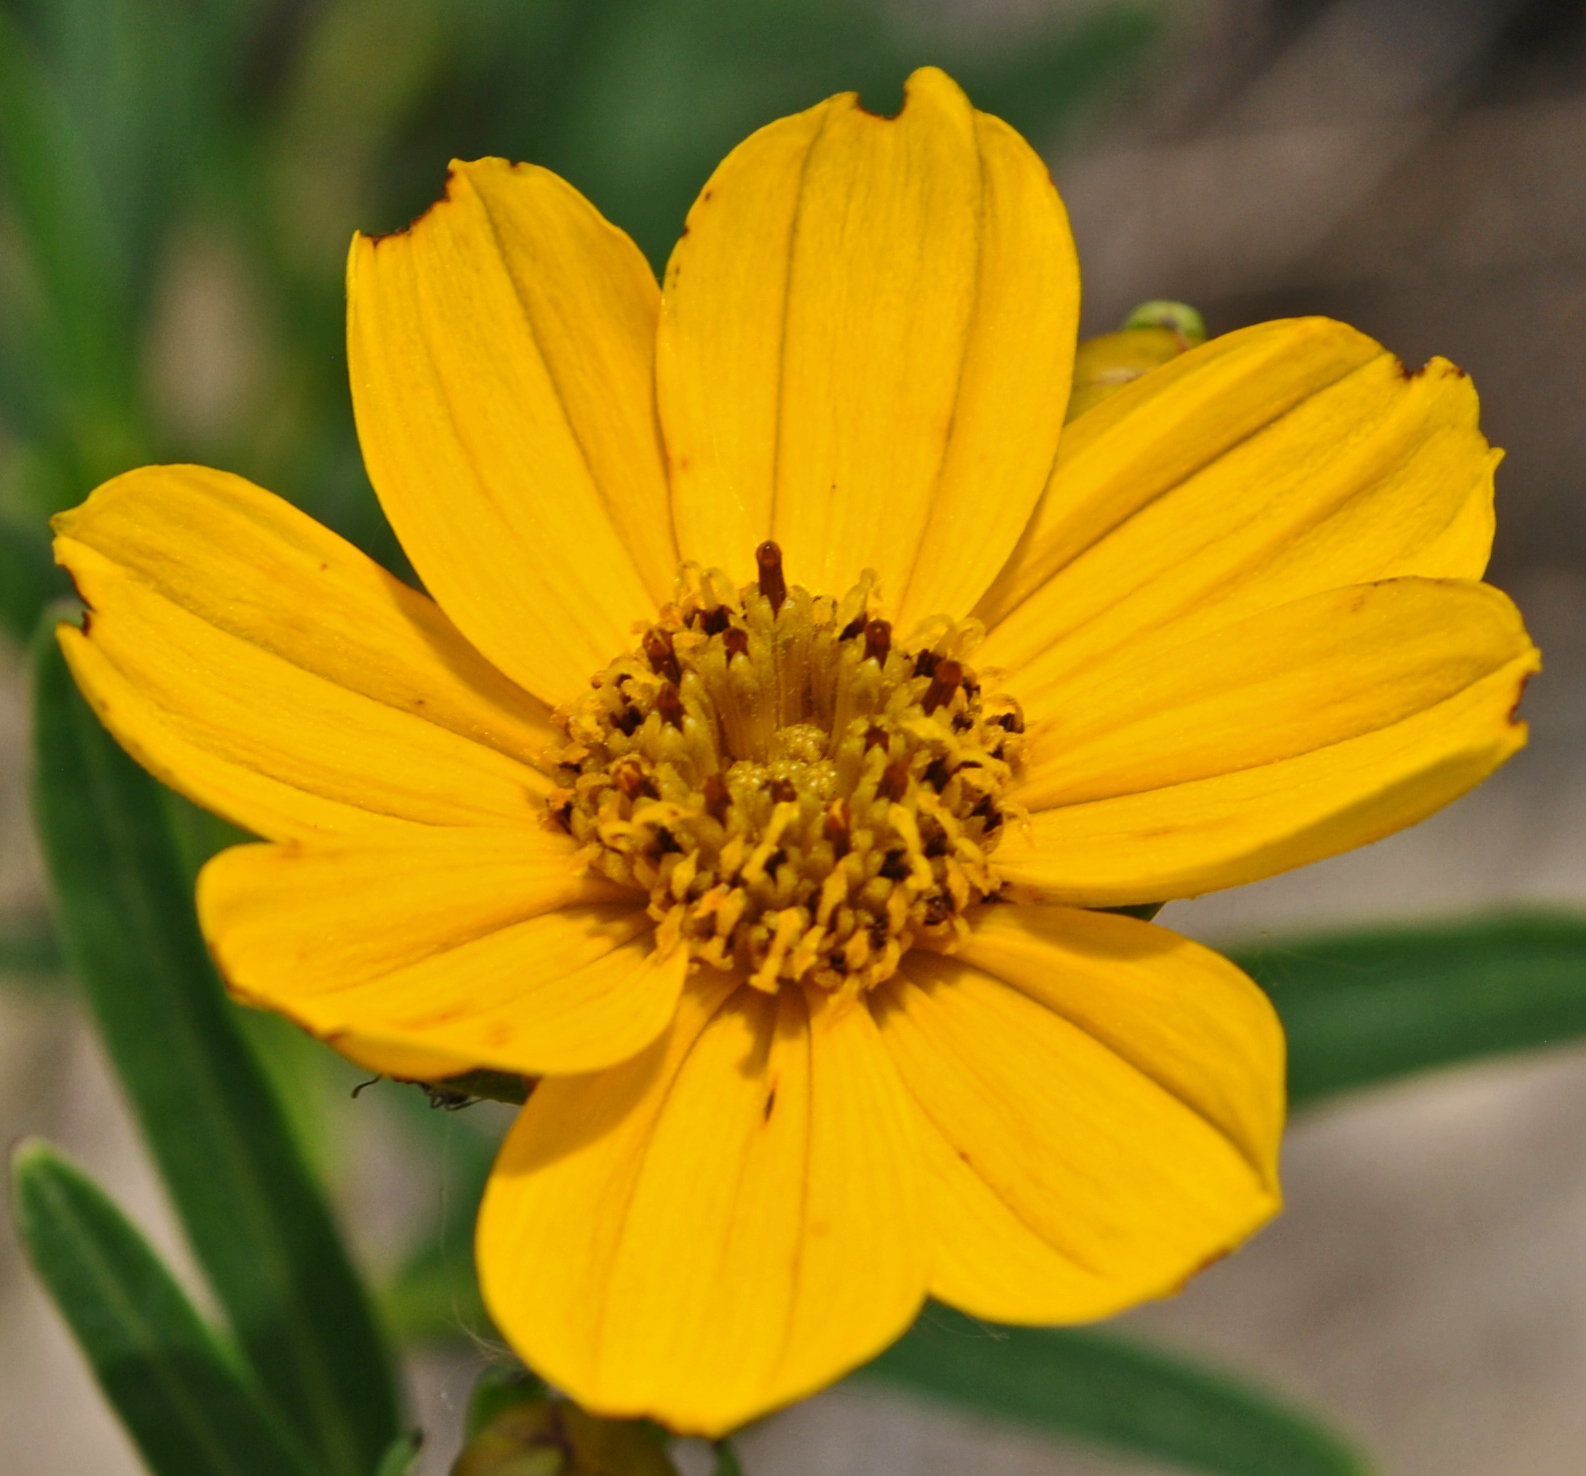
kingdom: Plantae
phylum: Tracheophyta
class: Magnoliopsida
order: Asterales
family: Asteraceae
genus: Coreopsis
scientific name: Coreopsis palmata
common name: Prairie coreopsis
